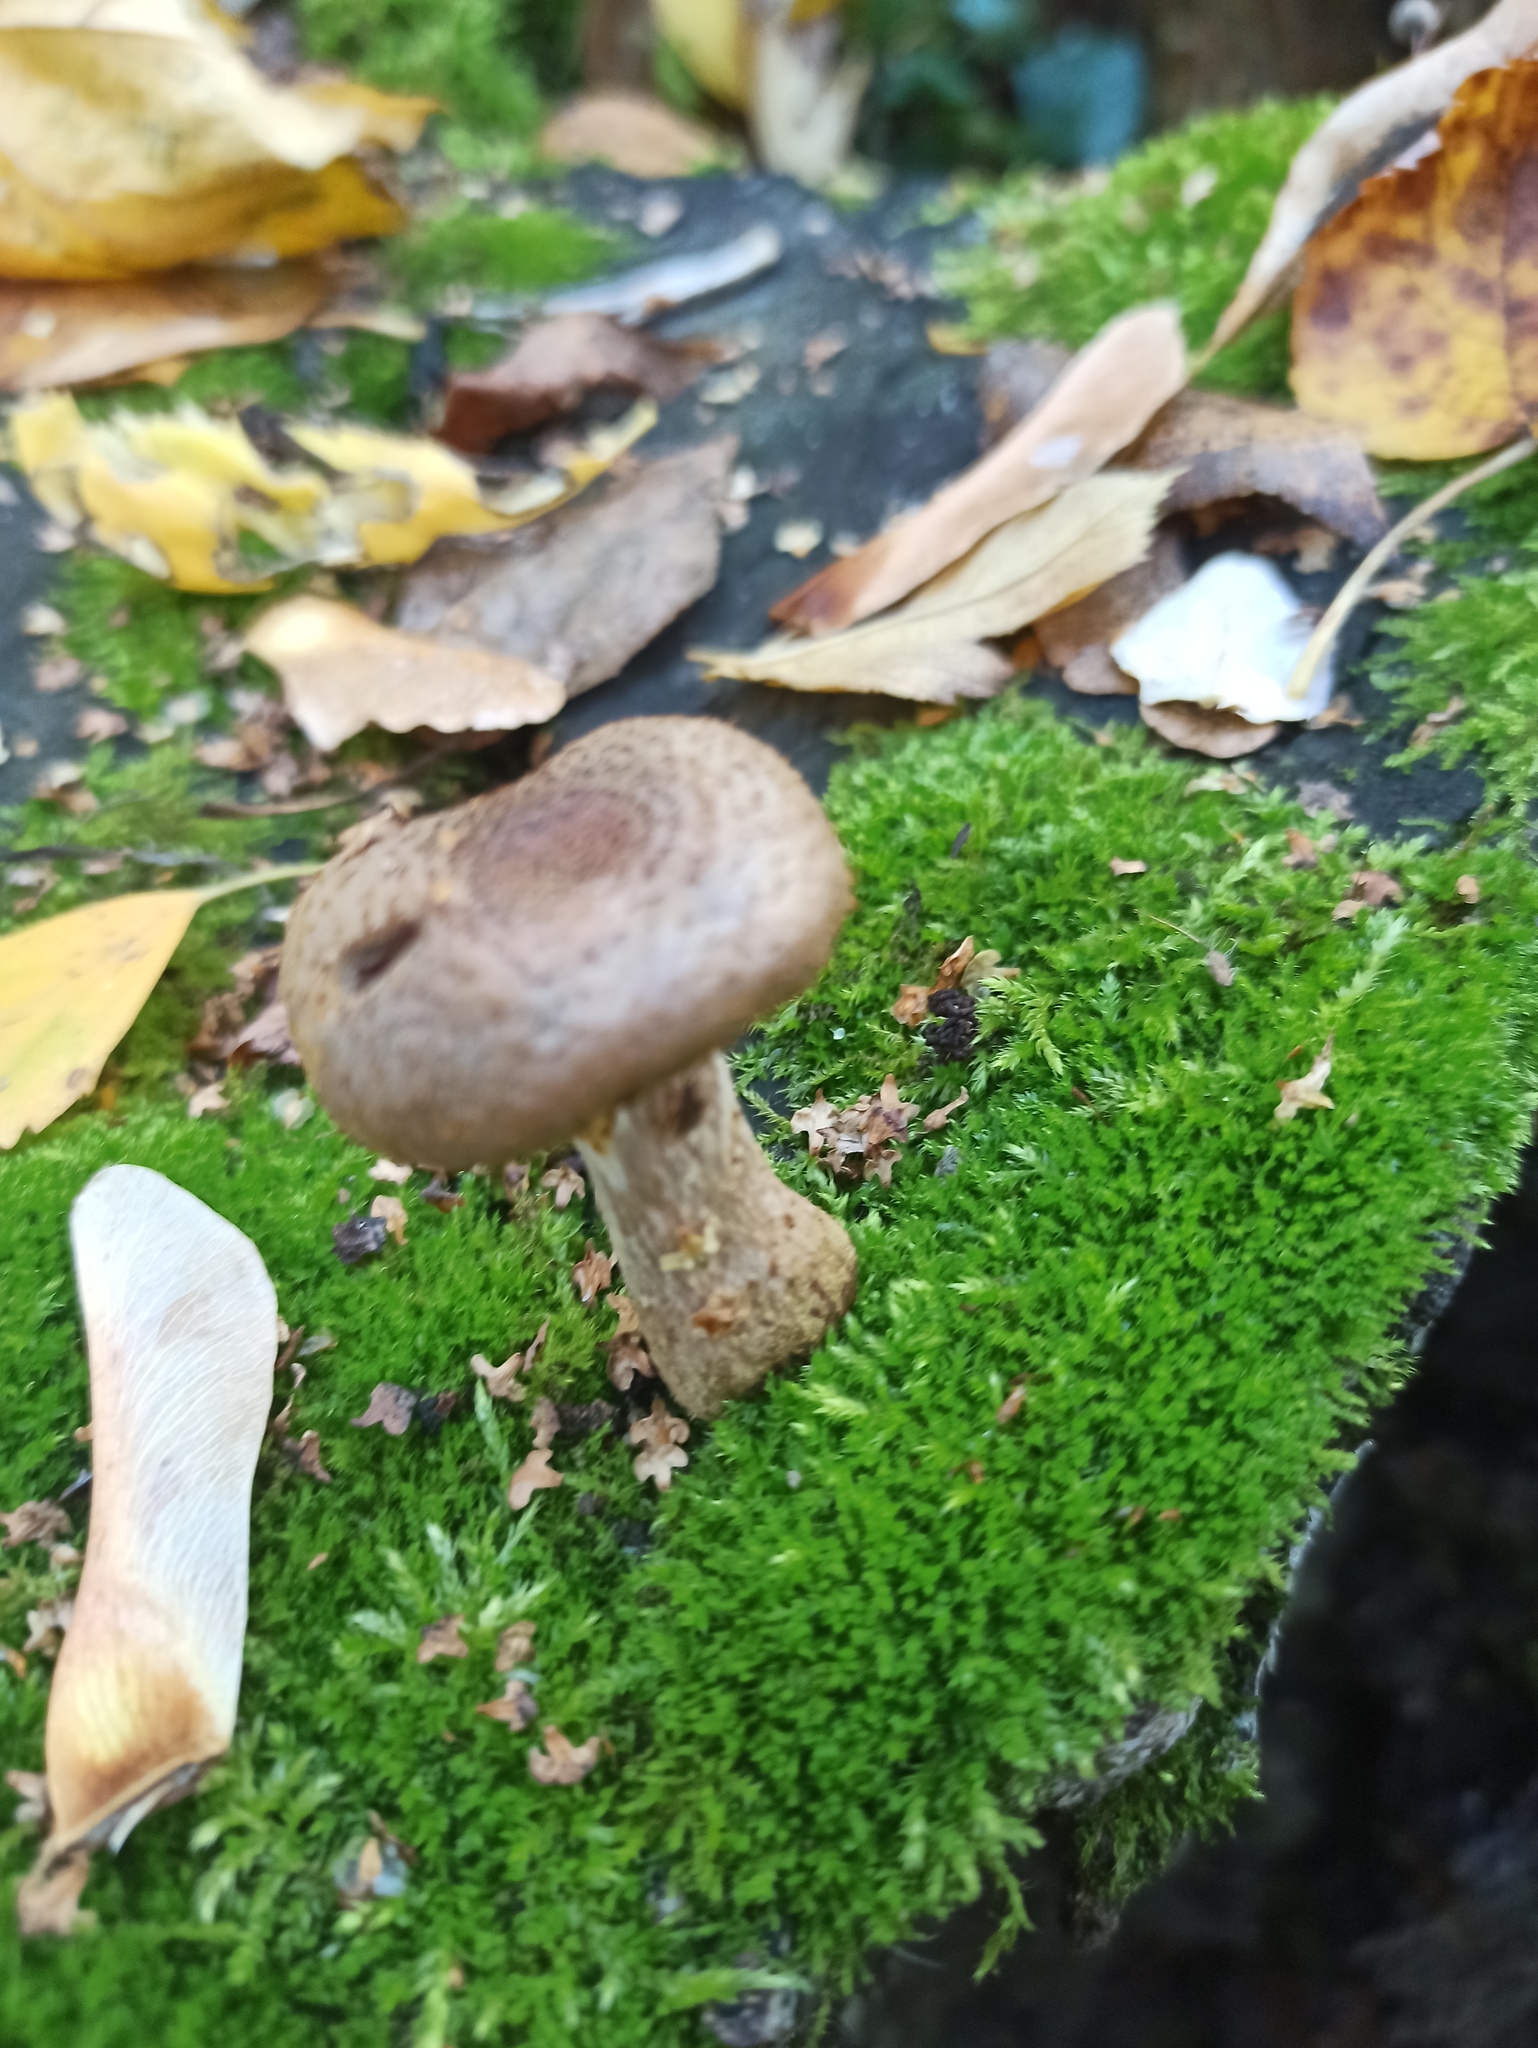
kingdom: Fungi
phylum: Basidiomycota
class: Agaricomycetes
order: Agaricales
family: Physalacriaceae
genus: Armillaria
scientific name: Armillaria gallica
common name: Bulbous honey fungus
